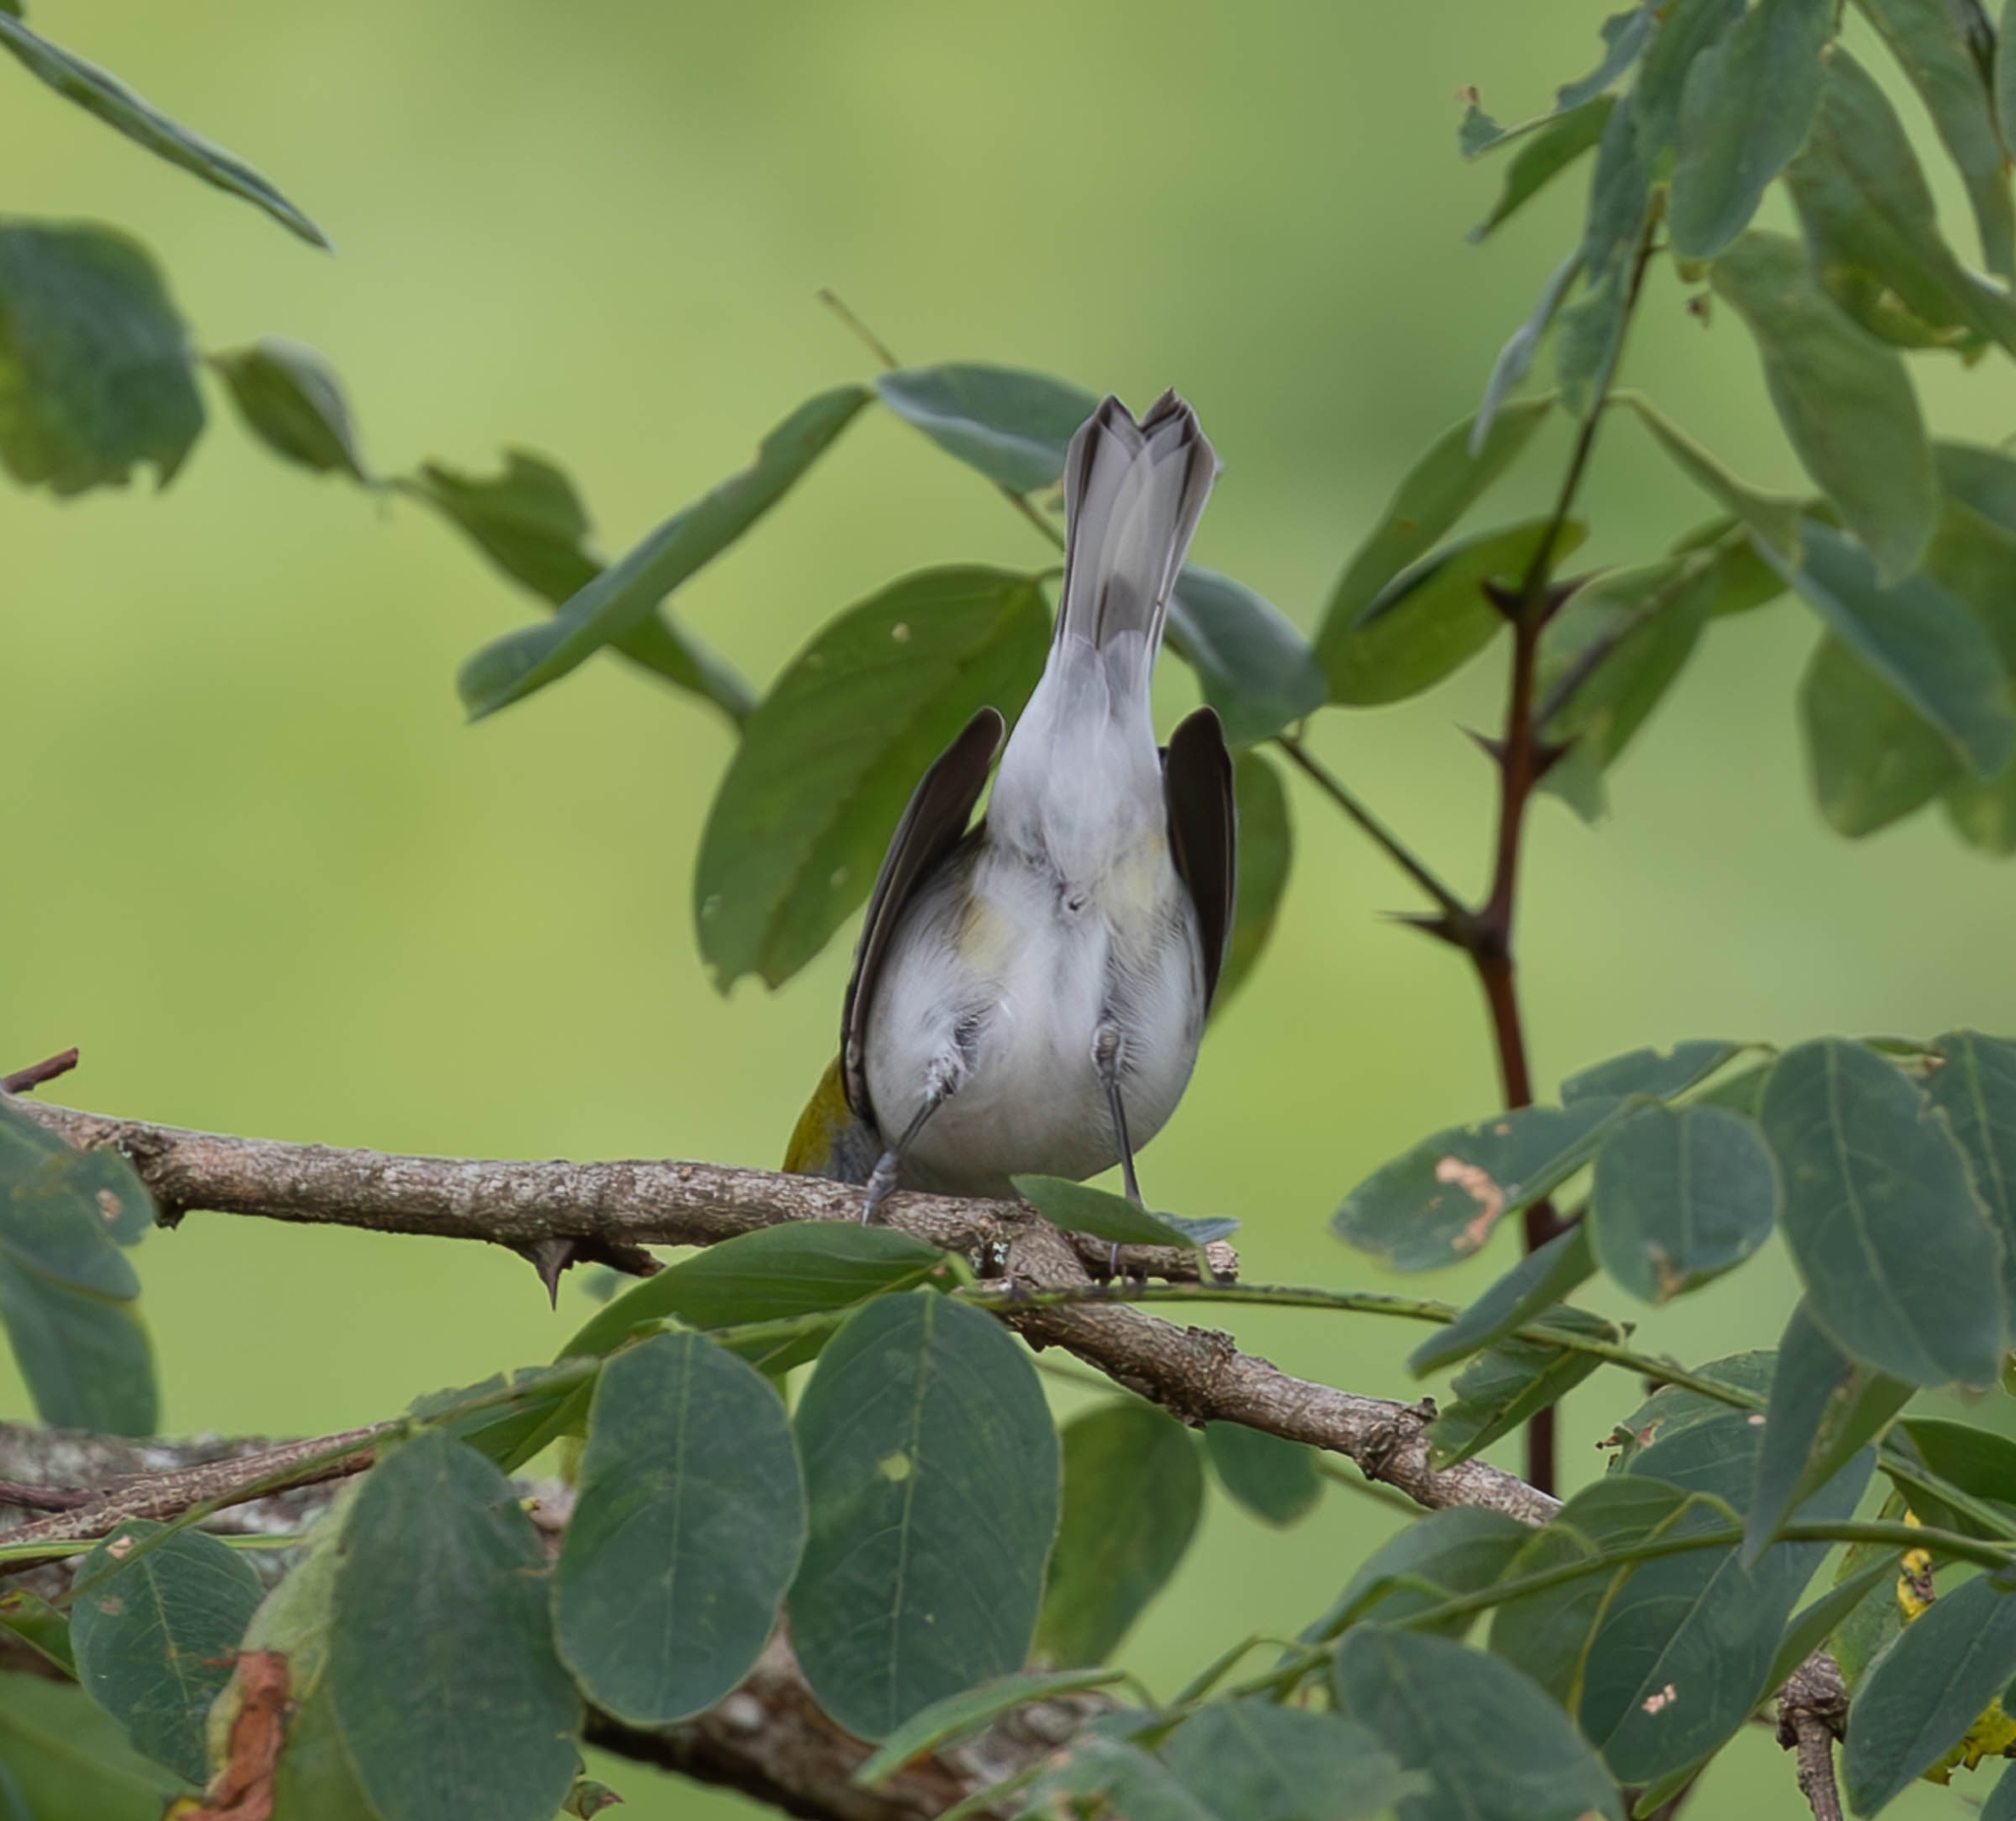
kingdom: Animalia
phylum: Chordata
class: Aves
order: Passeriformes
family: Parulidae
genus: Setophaga
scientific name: Setophaga pensylvanica
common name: Chestnut-sided warbler
